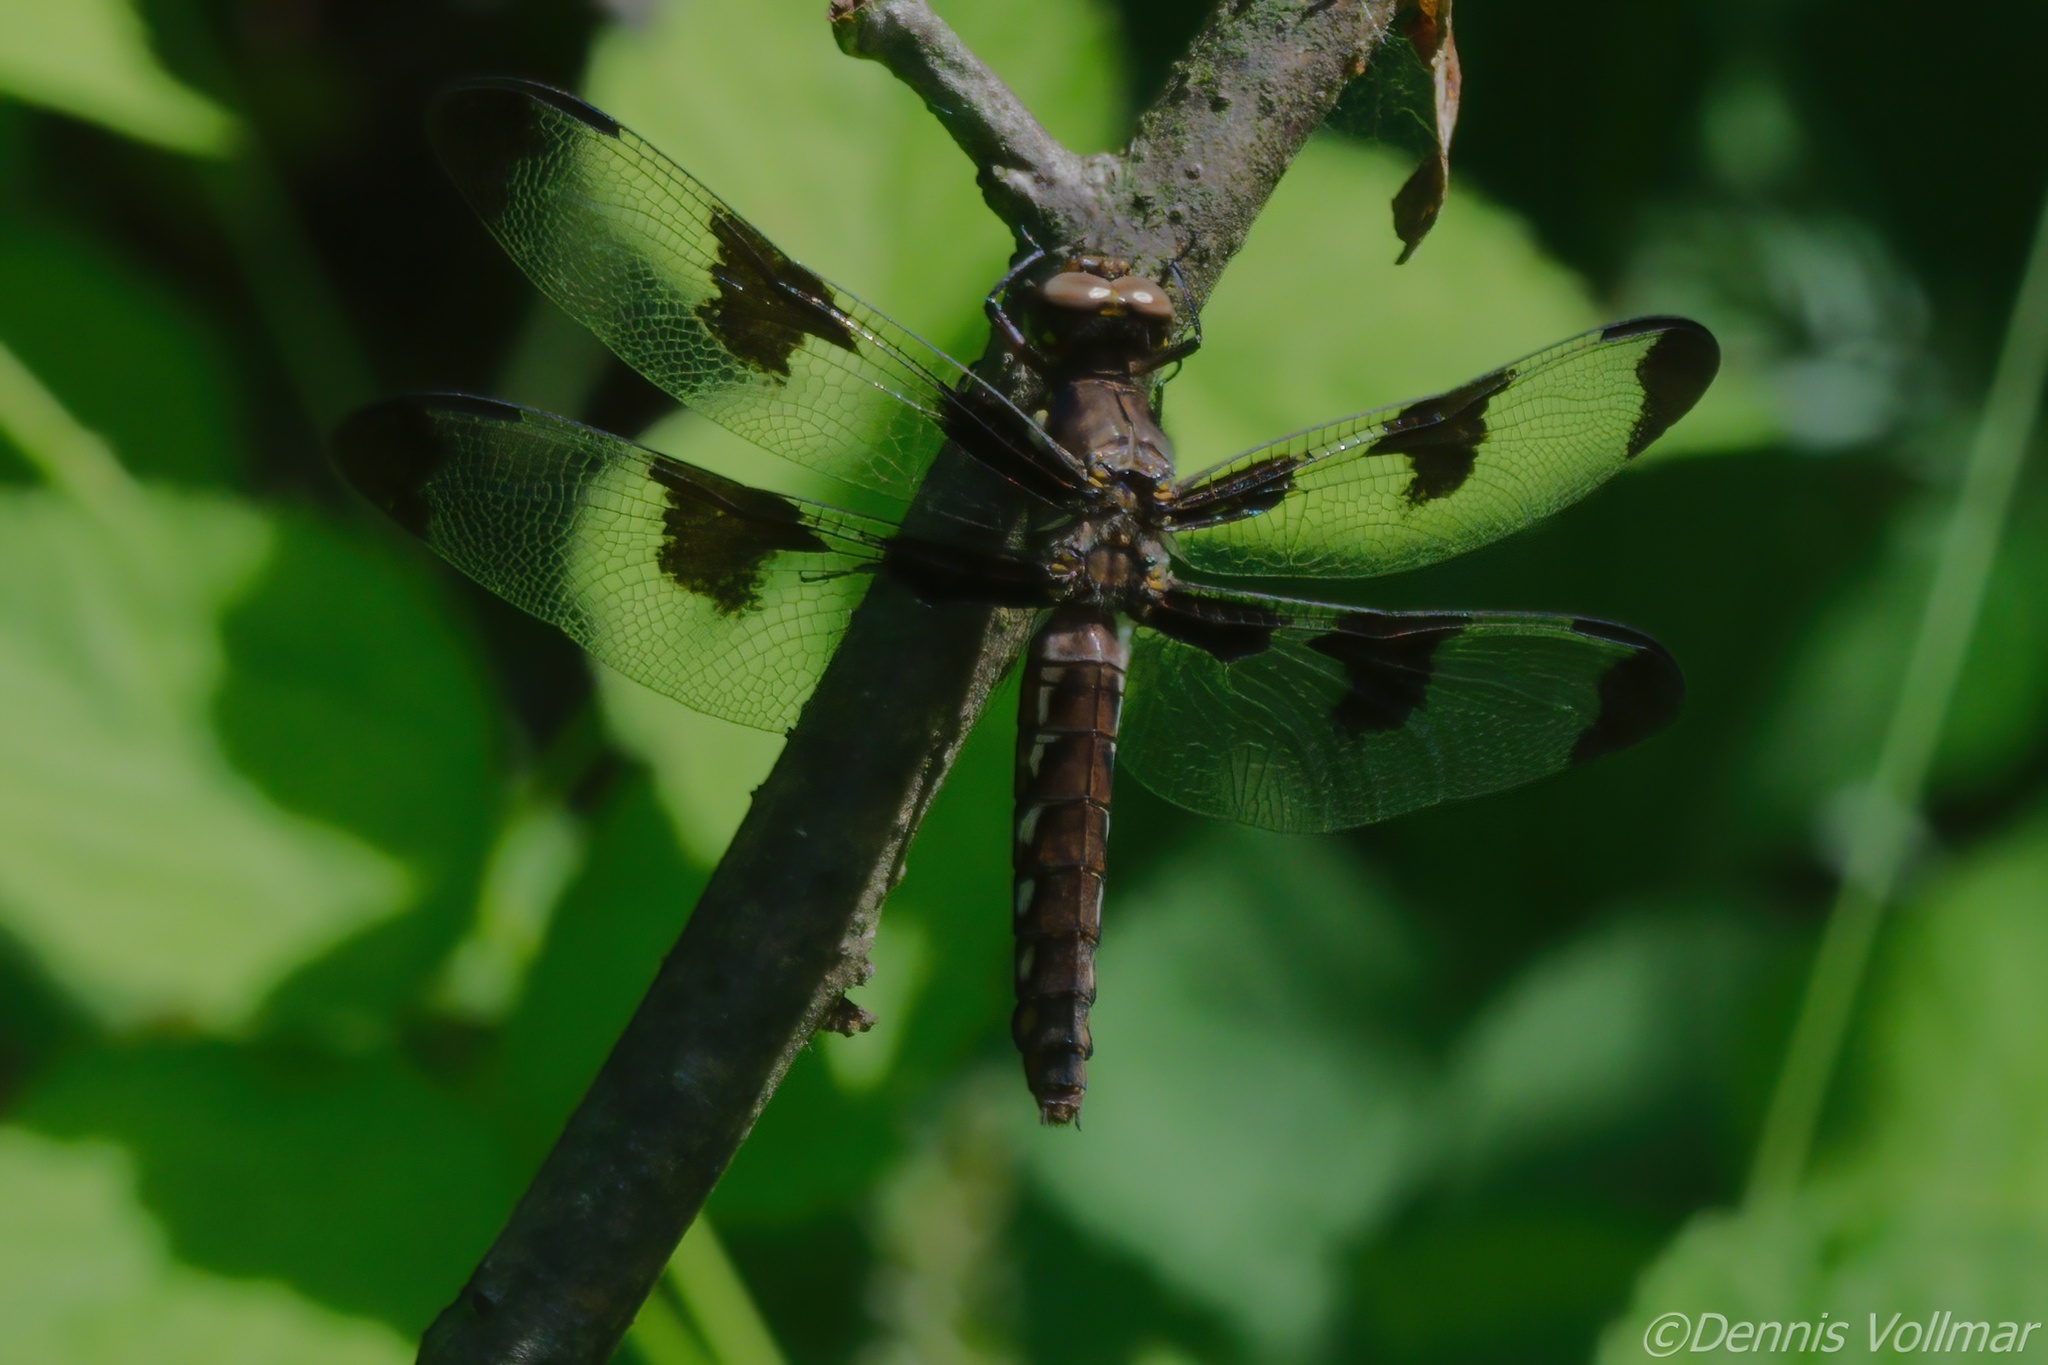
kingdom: Animalia
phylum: Arthropoda
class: Insecta
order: Odonata
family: Libellulidae
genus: Plathemis
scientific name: Plathemis lydia
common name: Common whitetail
